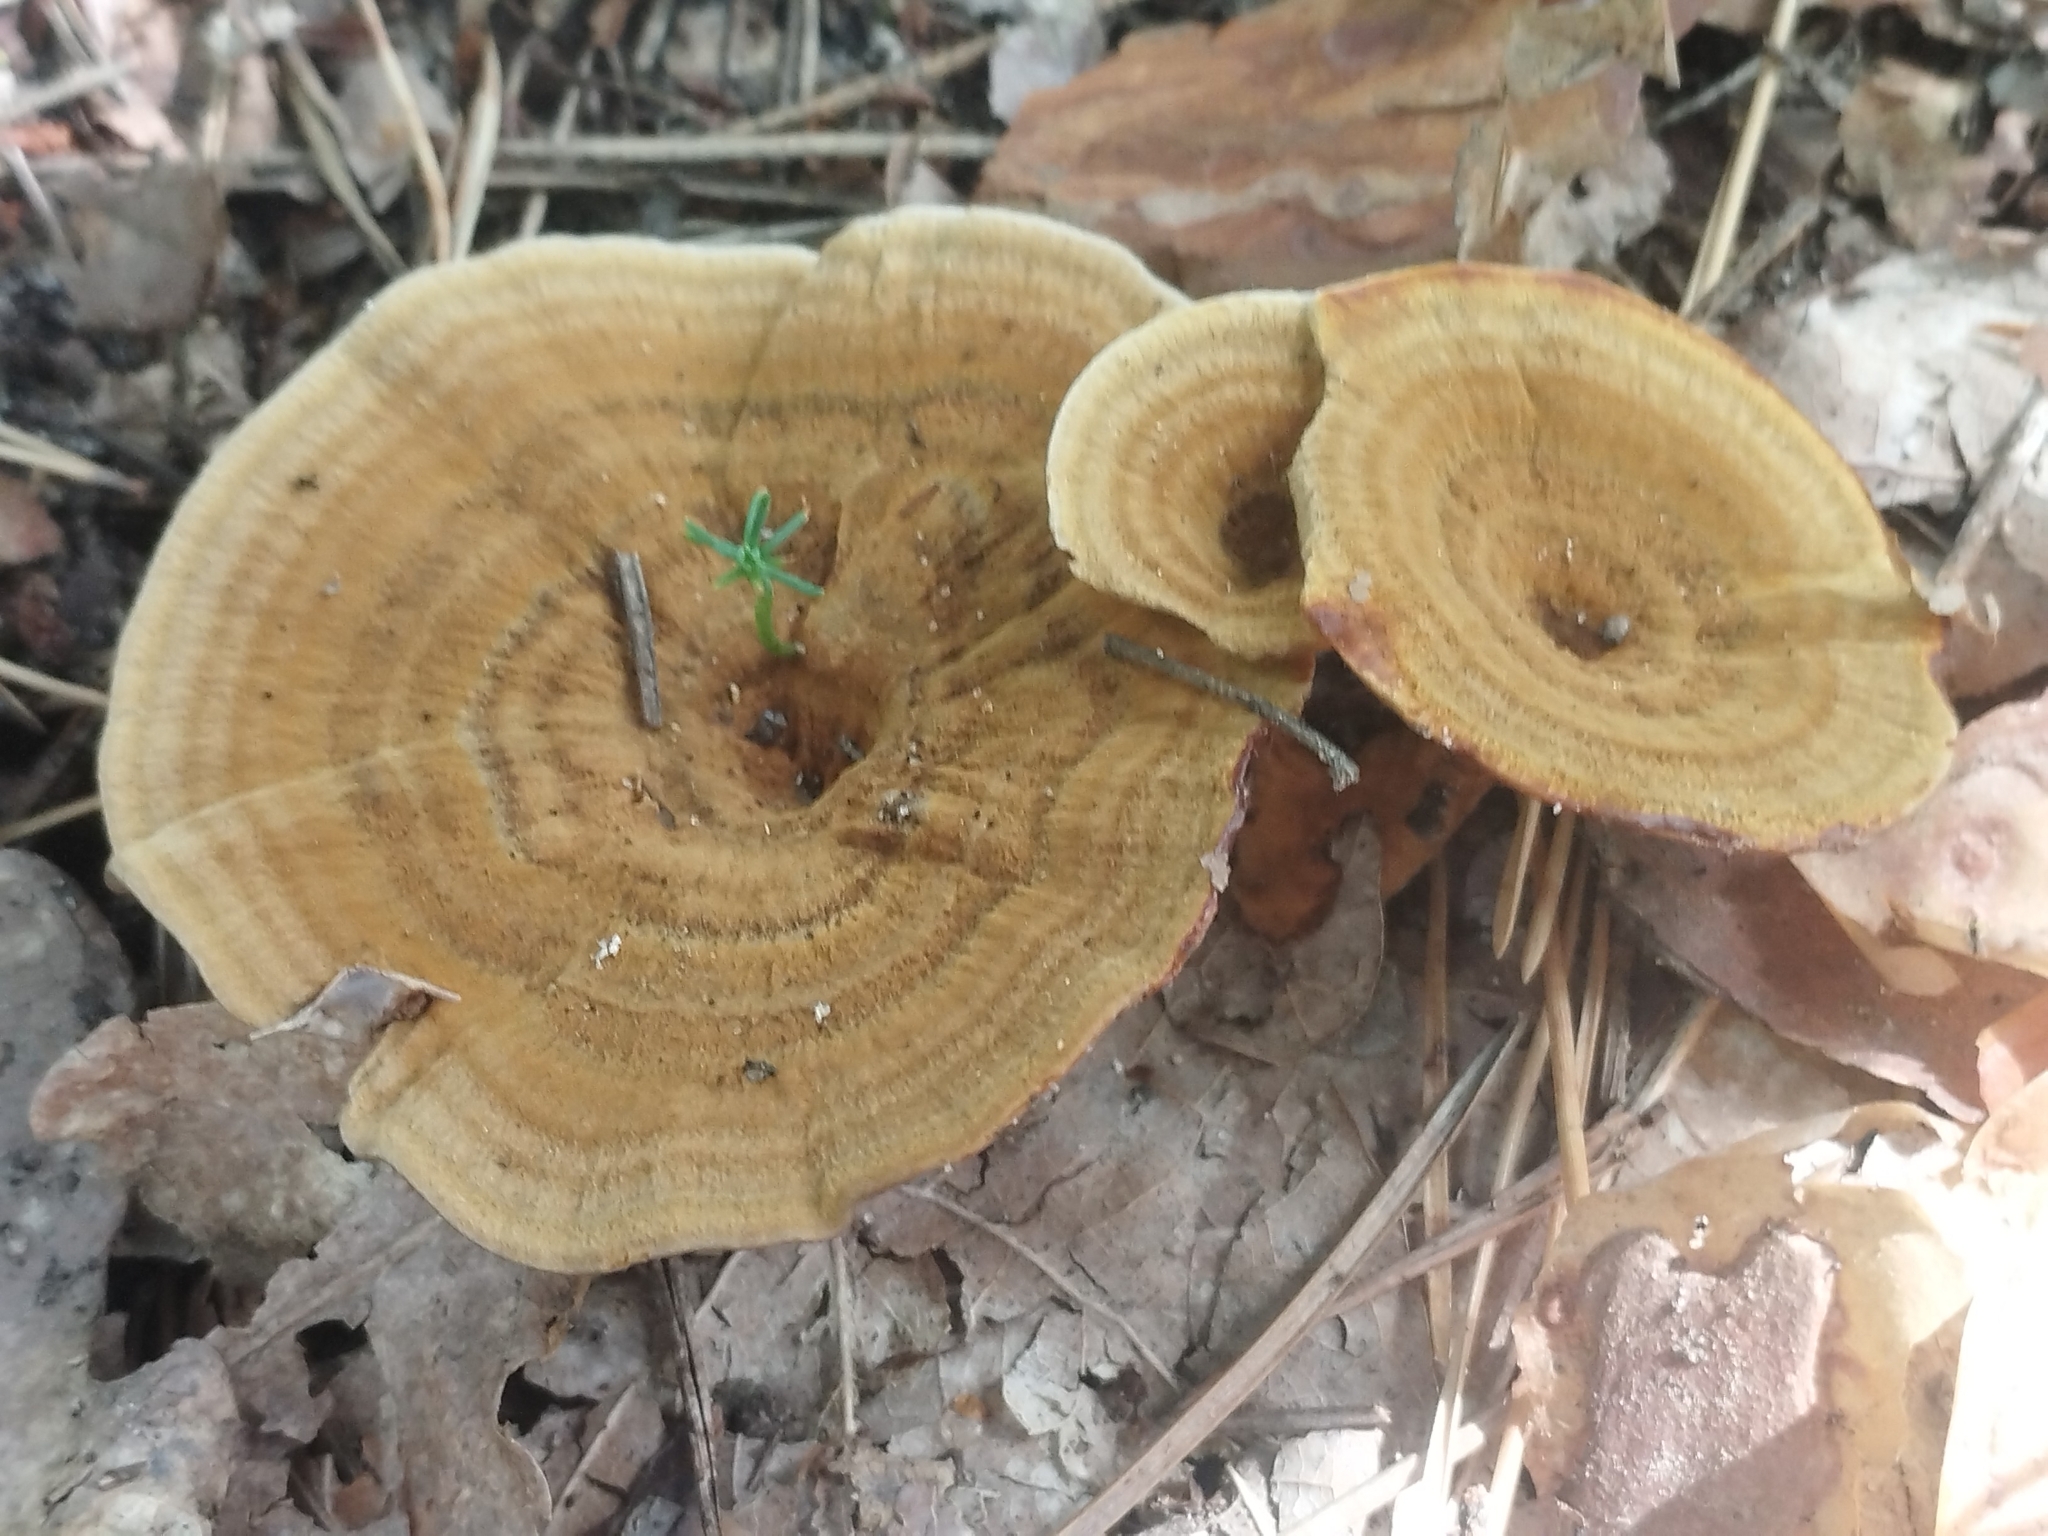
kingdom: Fungi
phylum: Basidiomycota
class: Agaricomycetes
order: Hymenochaetales
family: Hymenochaetaceae
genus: Coltricia
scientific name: Coltricia perennis
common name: Tiger's eye
